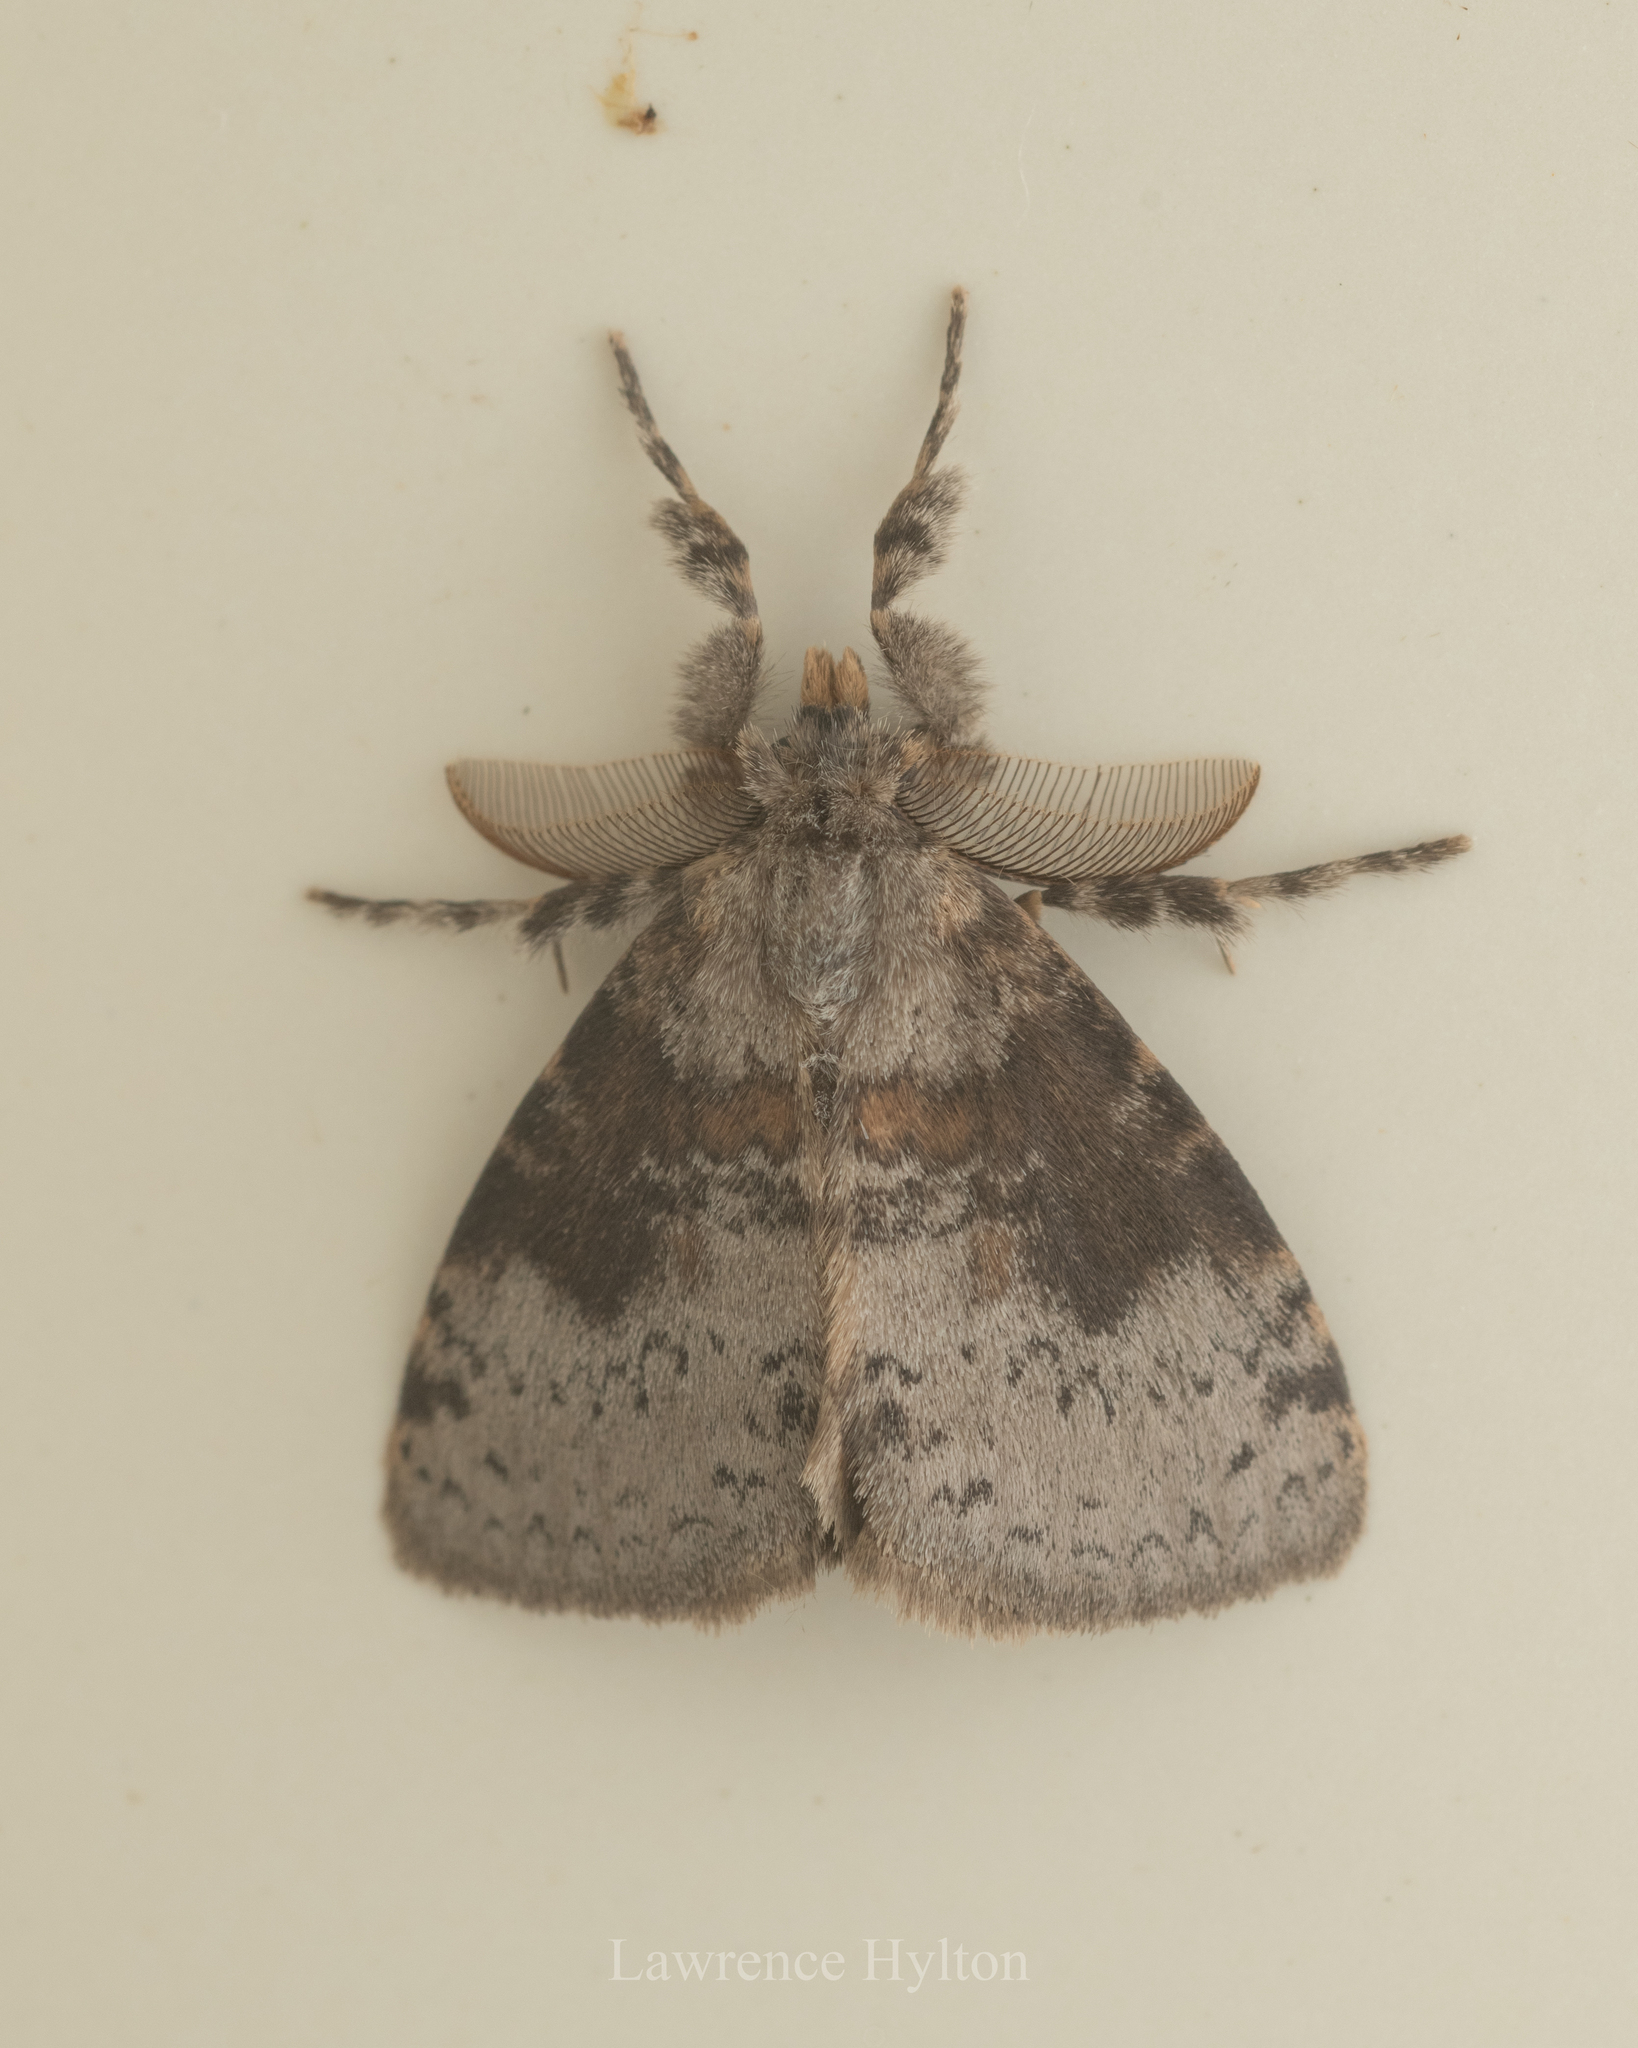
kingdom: Animalia
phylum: Arthropoda
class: Insecta
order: Lepidoptera
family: Erebidae
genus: Ilema
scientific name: Ilema costalis
